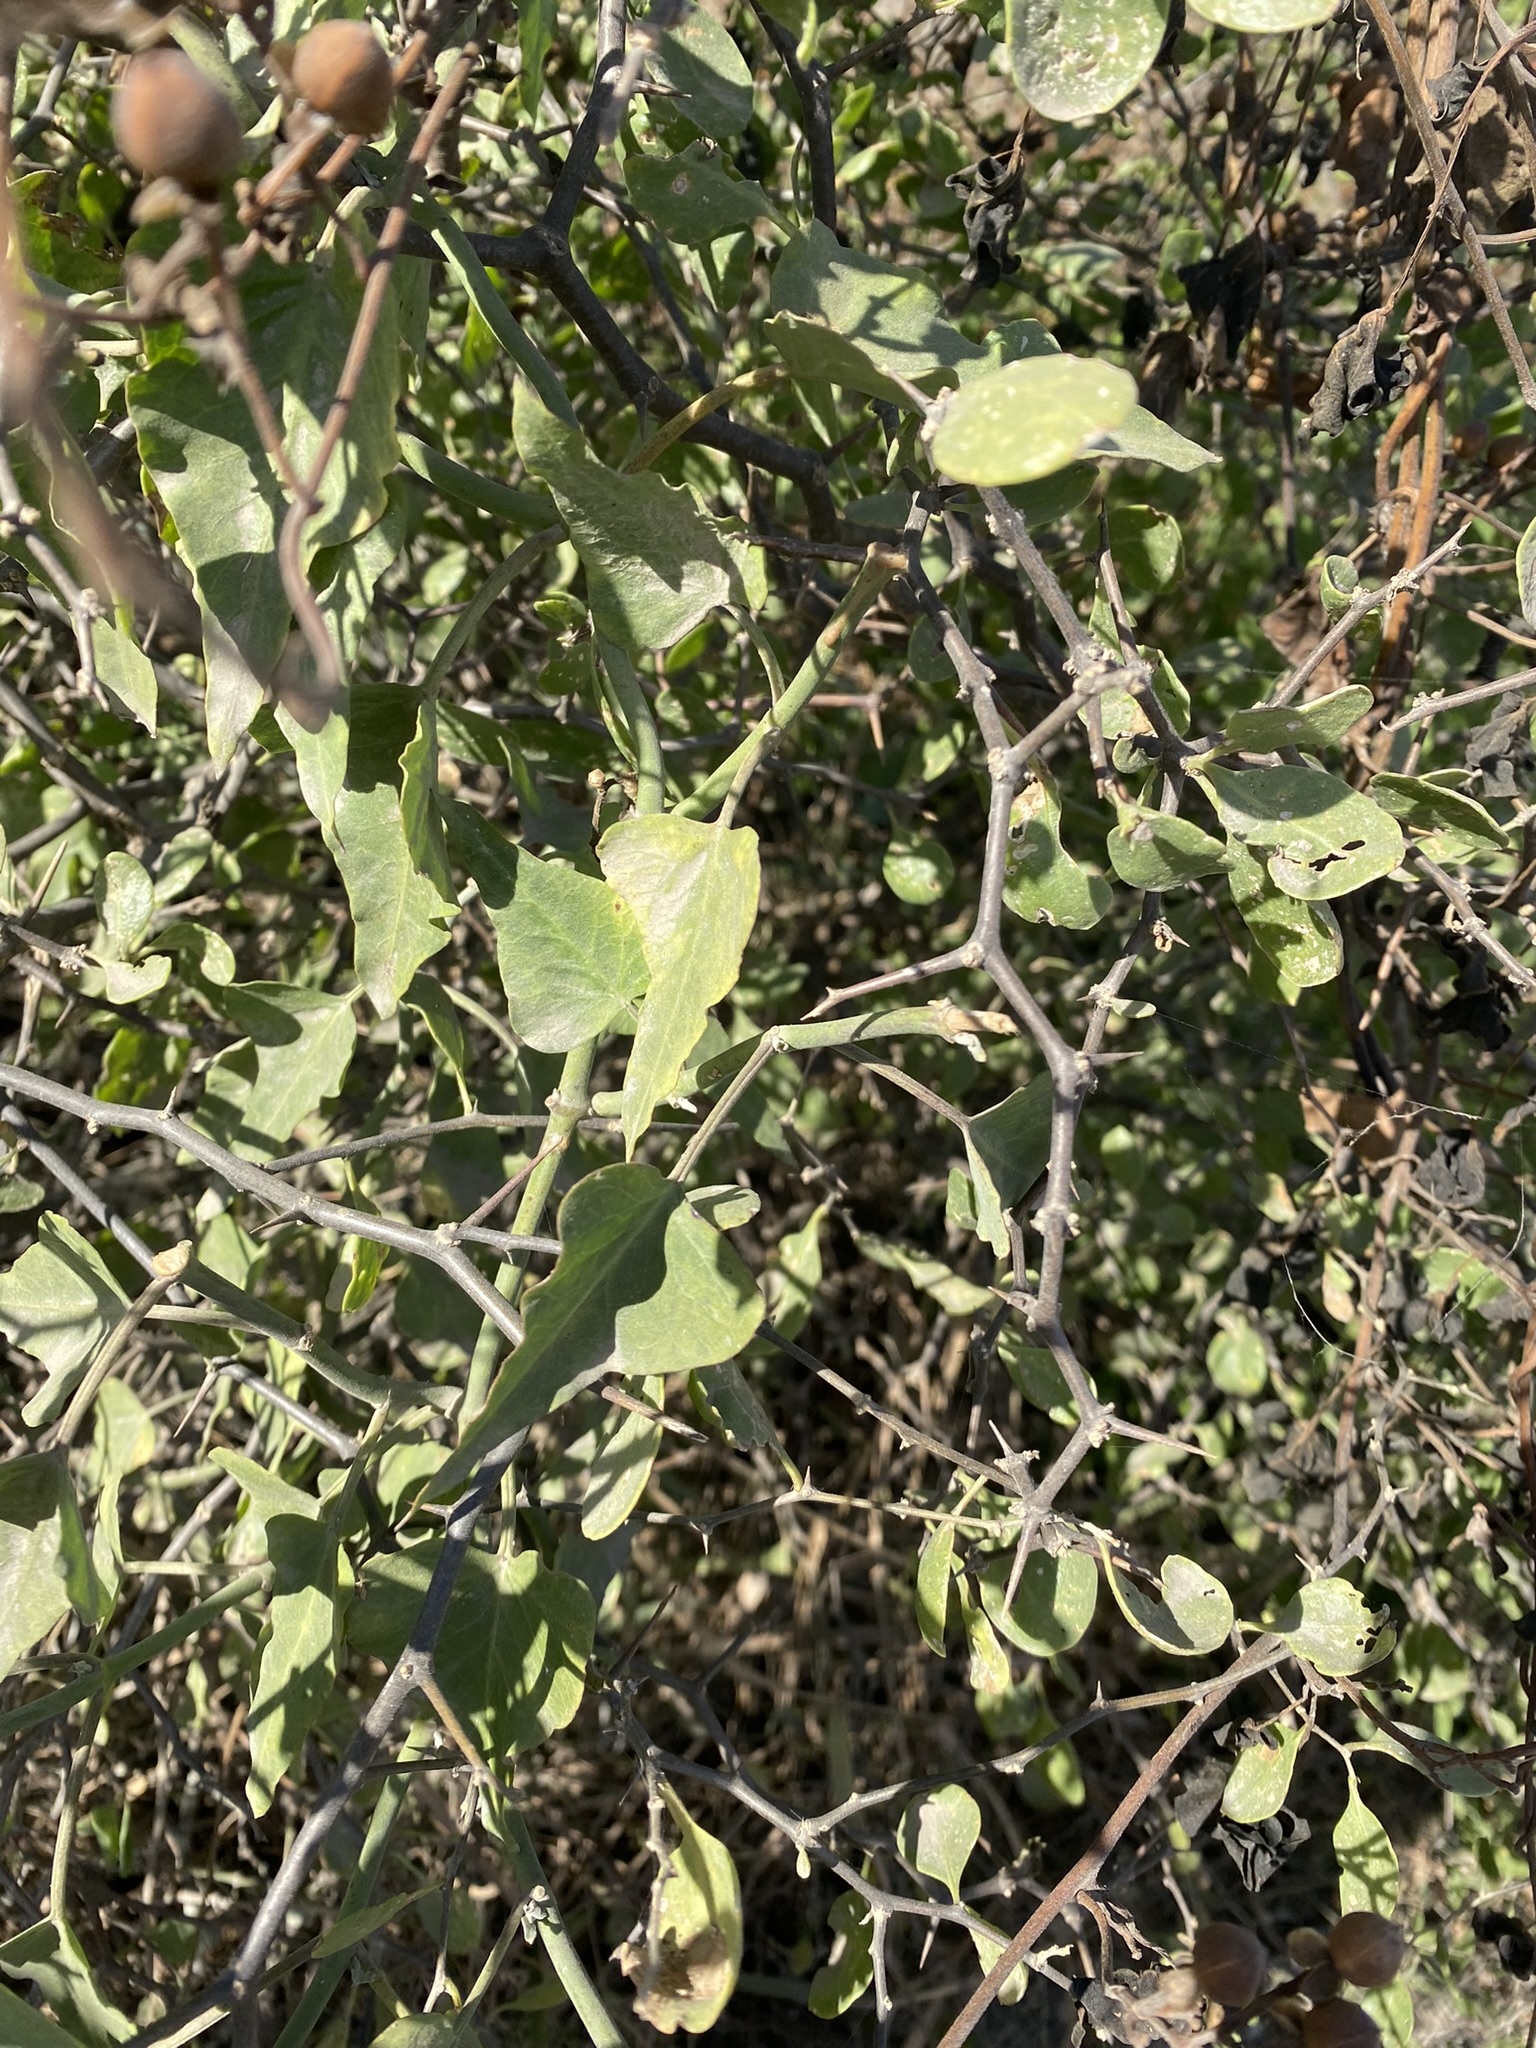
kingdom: Plantae
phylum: Tracheophyta
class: Magnoliopsida
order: Rosales
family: Cannabaceae
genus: Celtis
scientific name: Celtis pallida
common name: Desert hackberry
